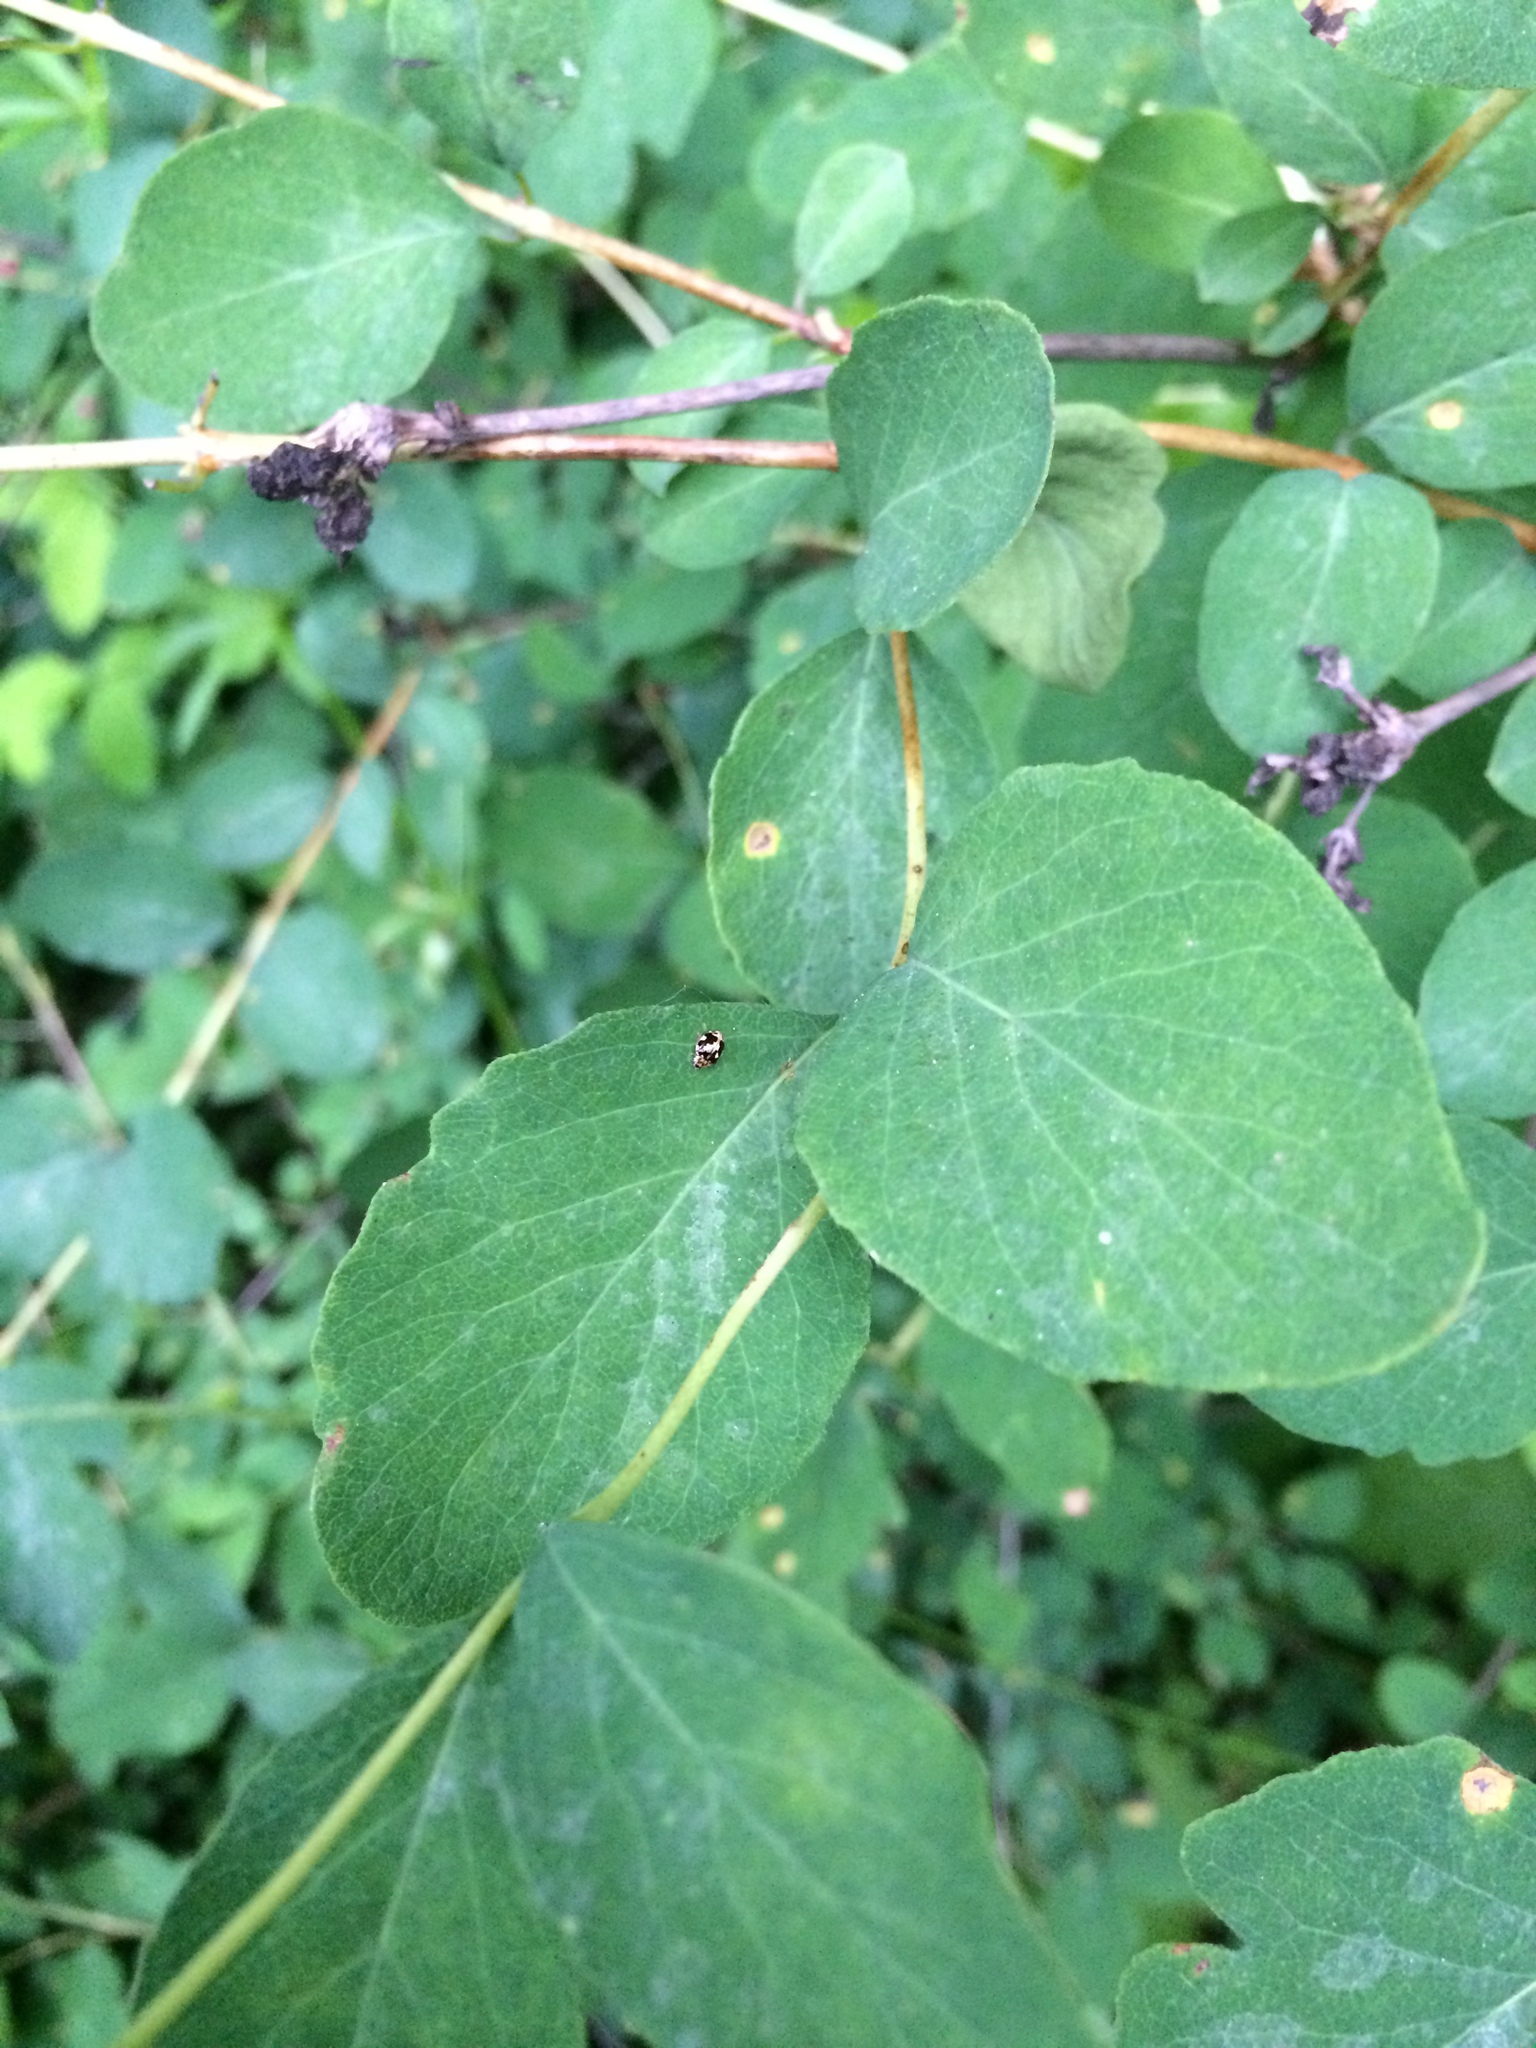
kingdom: Animalia
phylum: Arthropoda
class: Insecta
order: Coleoptera
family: Coccinellidae
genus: Psyllobora
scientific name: Psyllobora vigintimaculata
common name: Ladybird beetle
